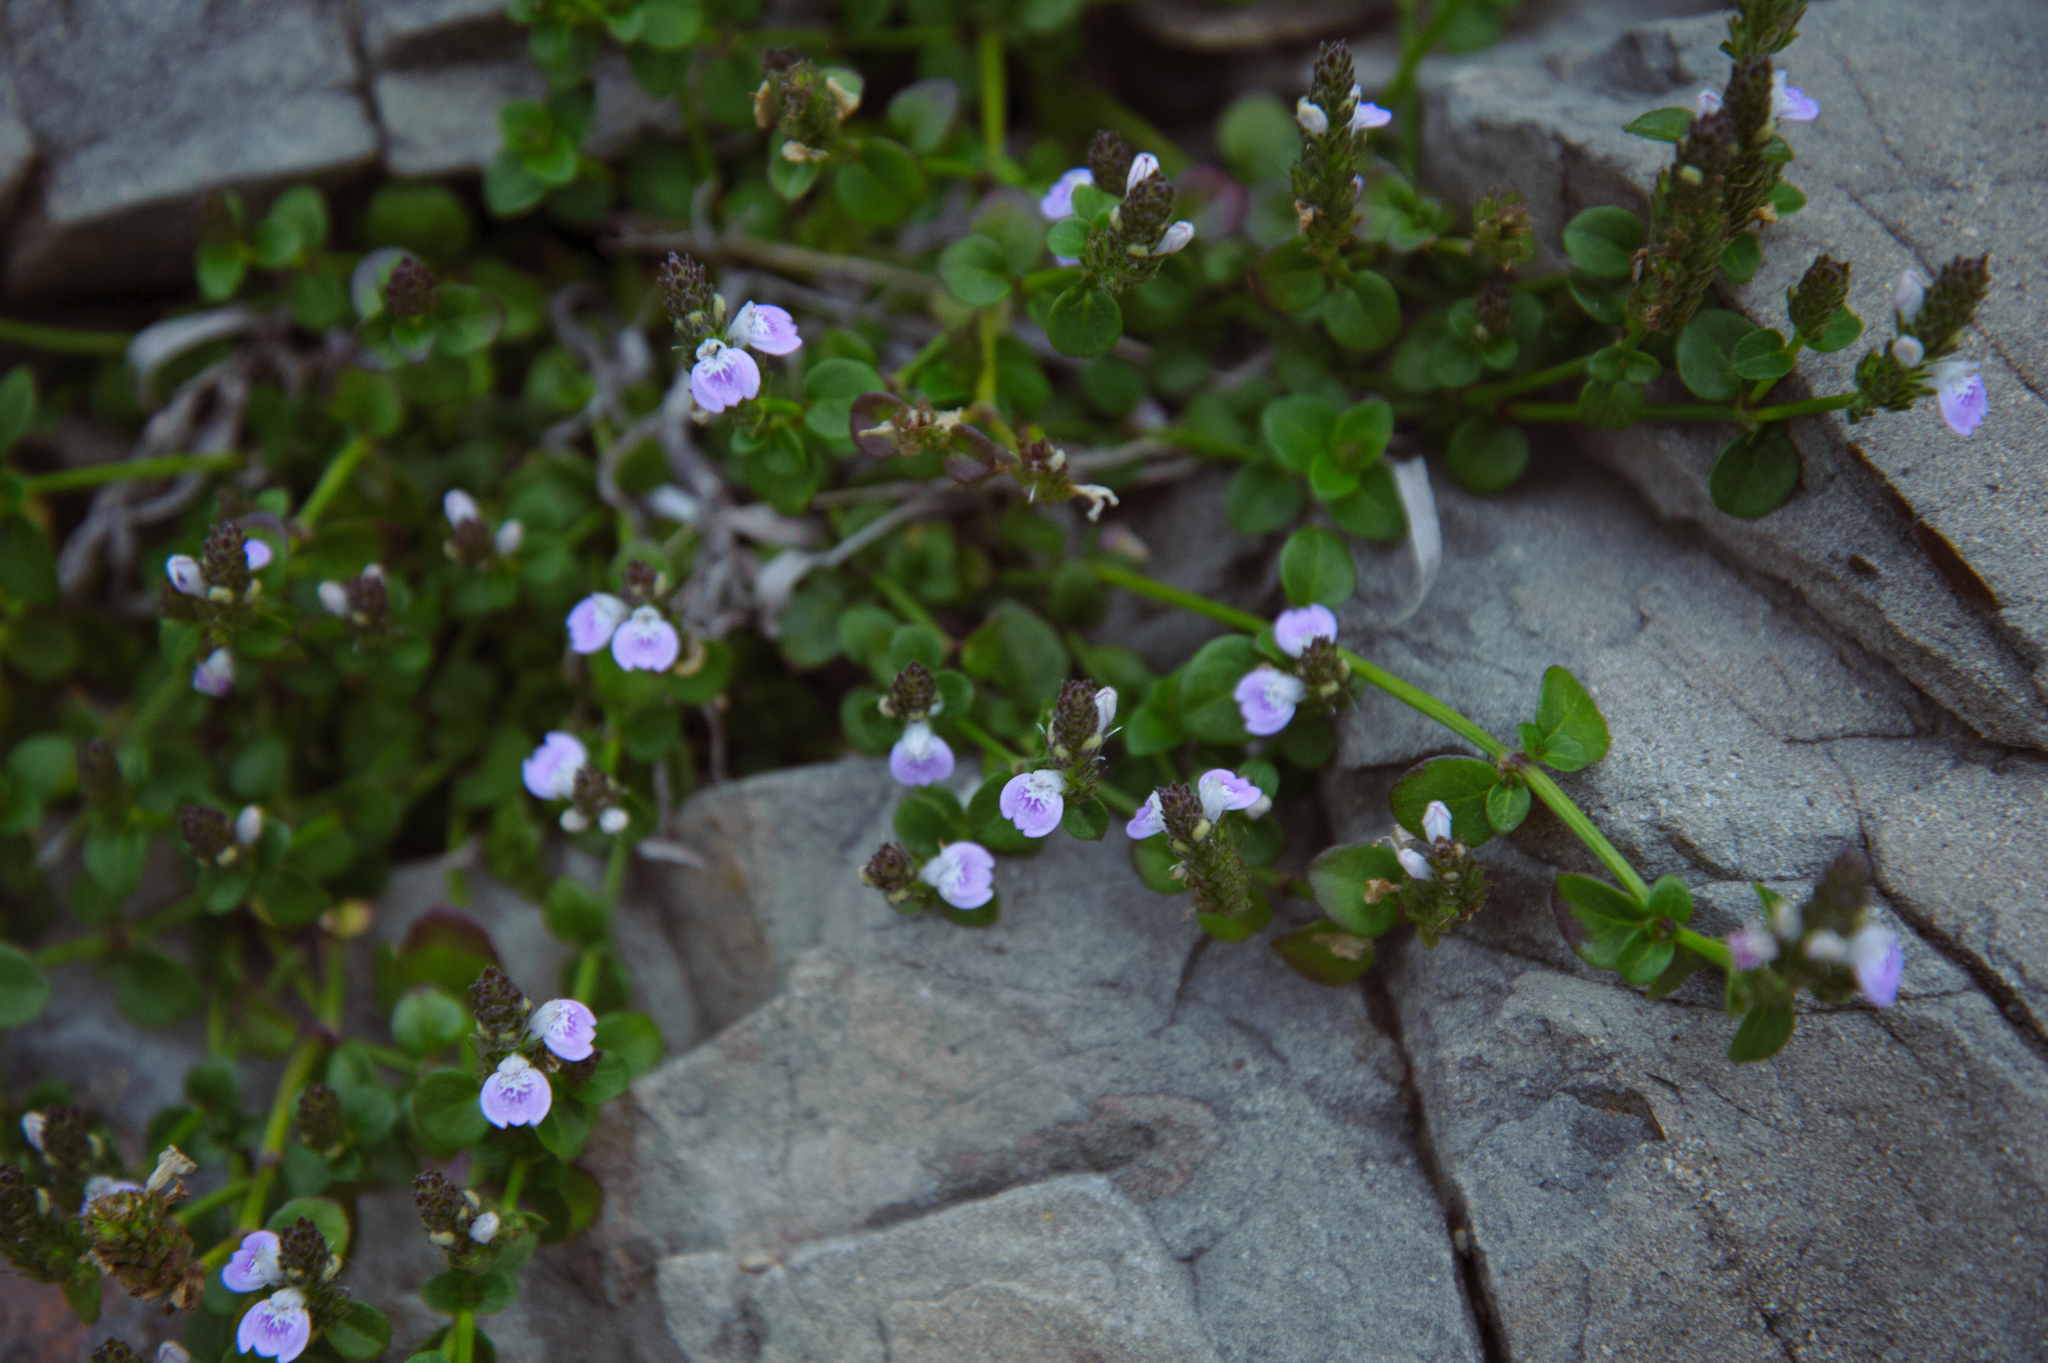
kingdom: Plantae
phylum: Tracheophyta
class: Magnoliopsida
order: Lamiales
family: Acanthaceae
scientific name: Acanthaceae
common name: Acanthaceae
